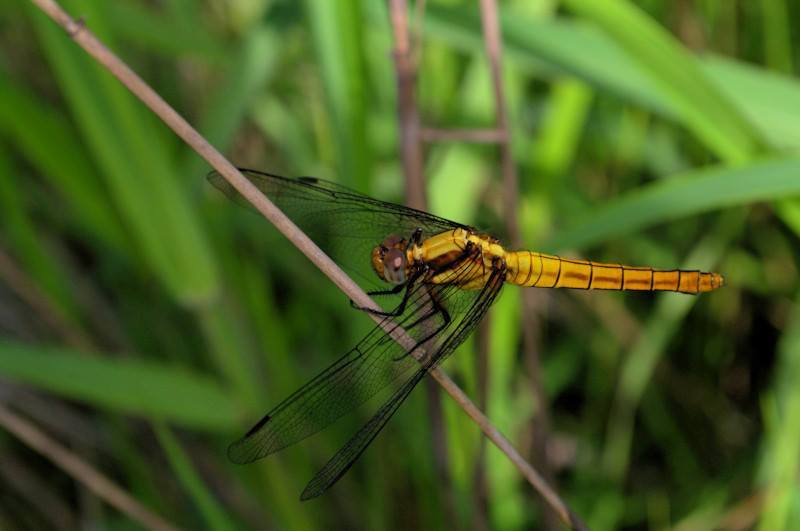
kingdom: Animalia
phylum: Arthropoda
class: Insecta
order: Odonata
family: Libellulidae
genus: Orthetrum
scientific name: Orthetrum triangulare
